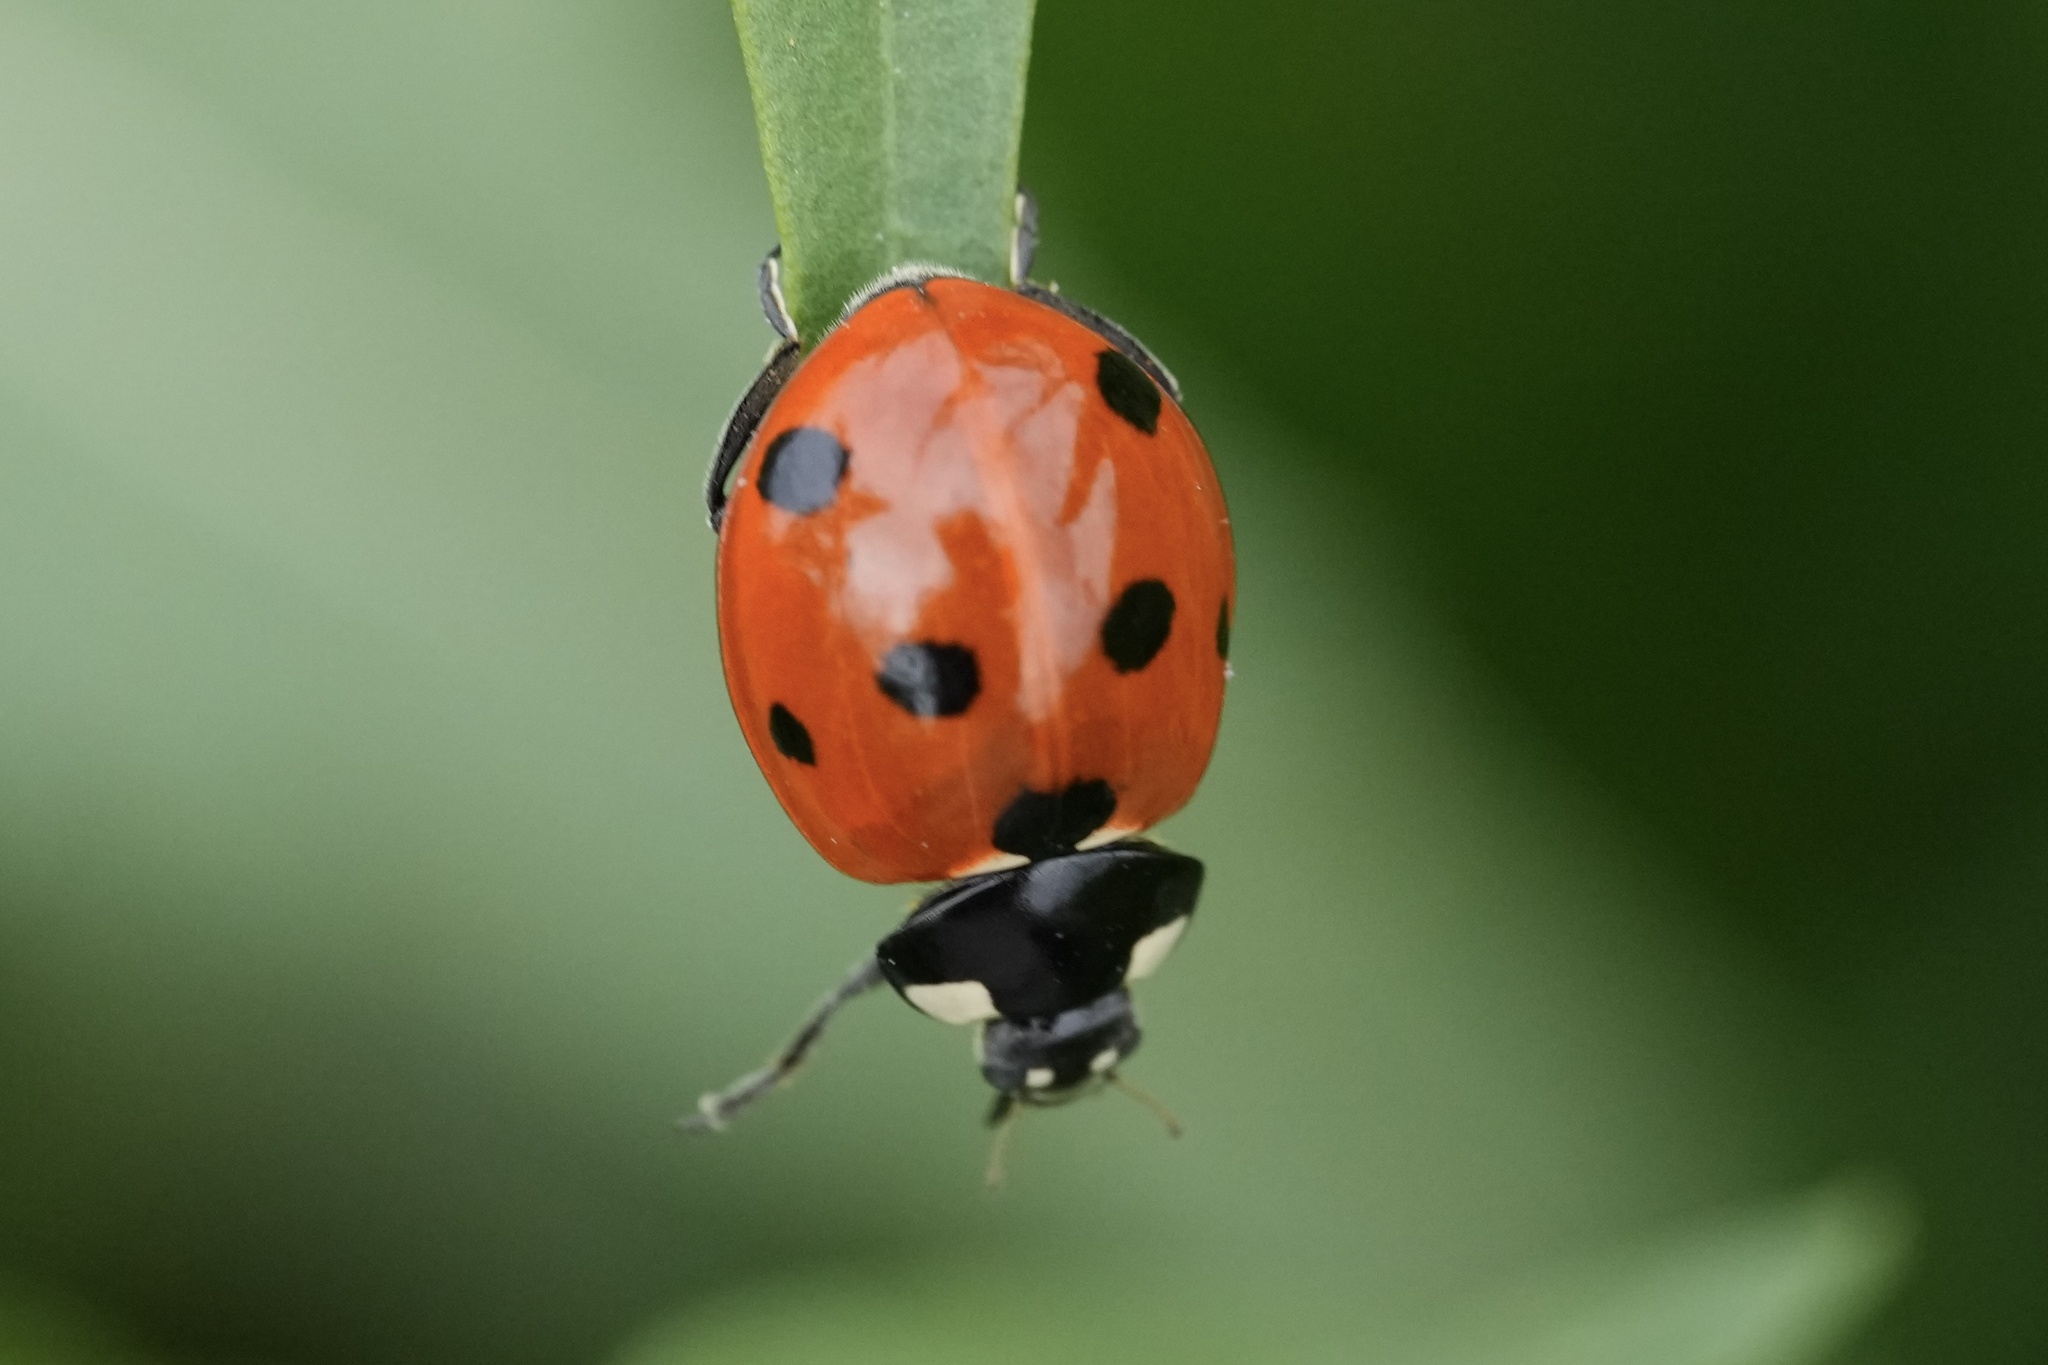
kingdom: Animalia
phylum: Arthropoda
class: Insecta
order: Coleoptera
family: Coccinellidae
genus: Coccinella
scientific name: Coccinella septempunctata
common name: Sevenspotted lady beetle
